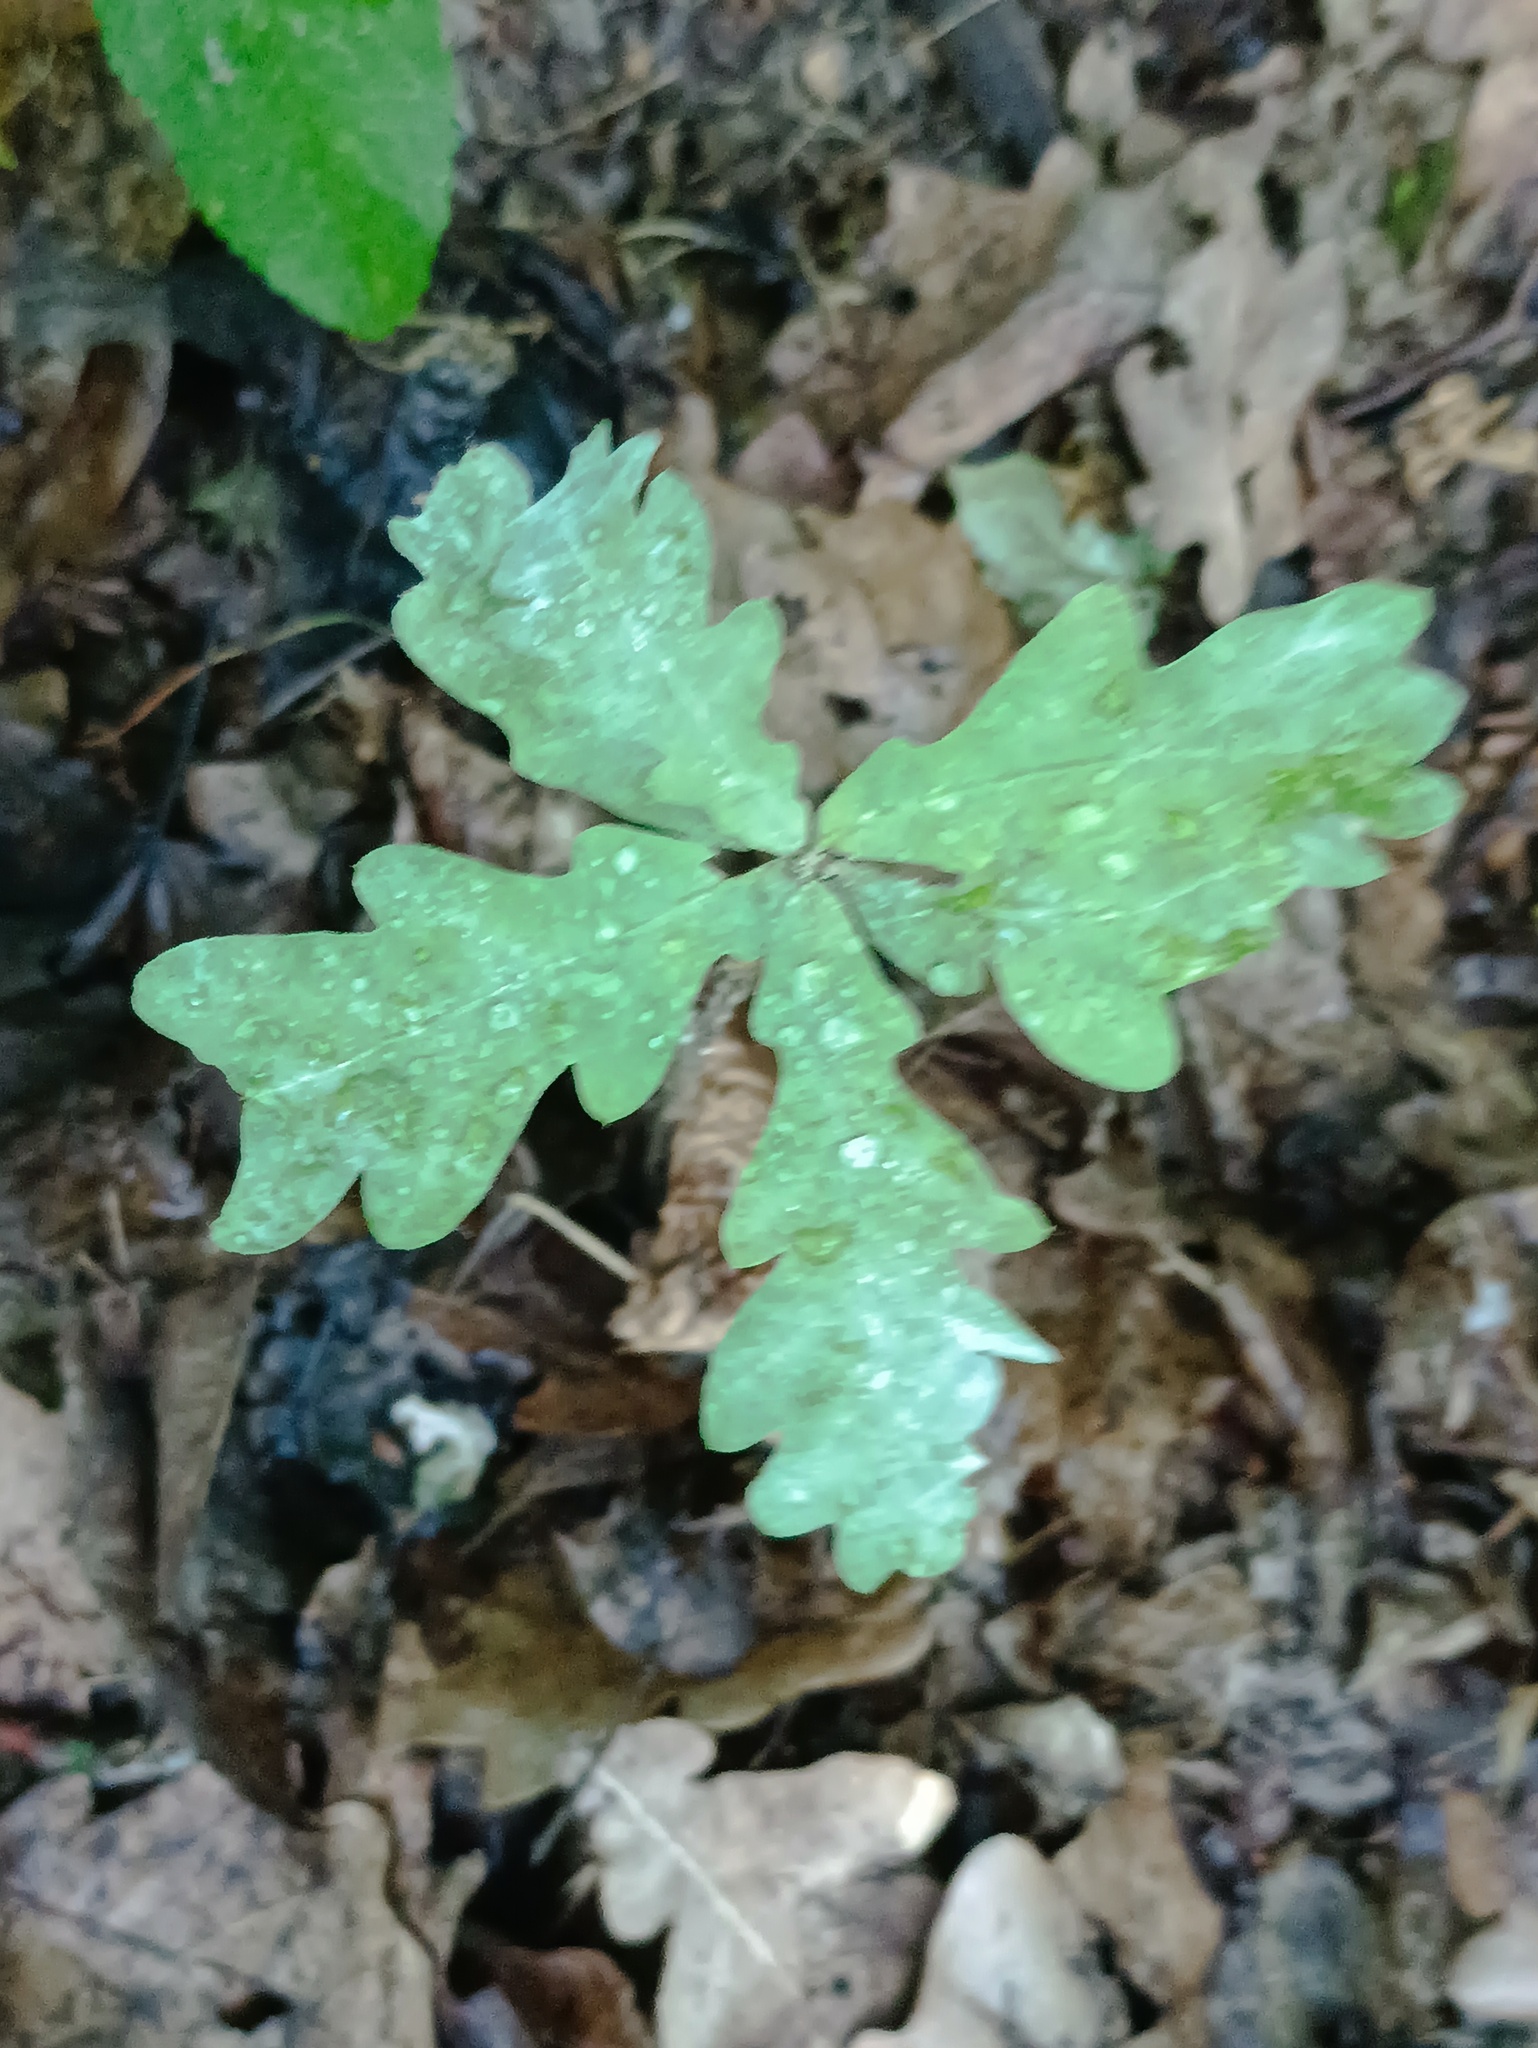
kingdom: Plantae
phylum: Tracheophyta
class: Magnoliopsida
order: Fagales
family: Fagaceae
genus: Quercus
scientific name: Quercus robur
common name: Pedunculate oak
